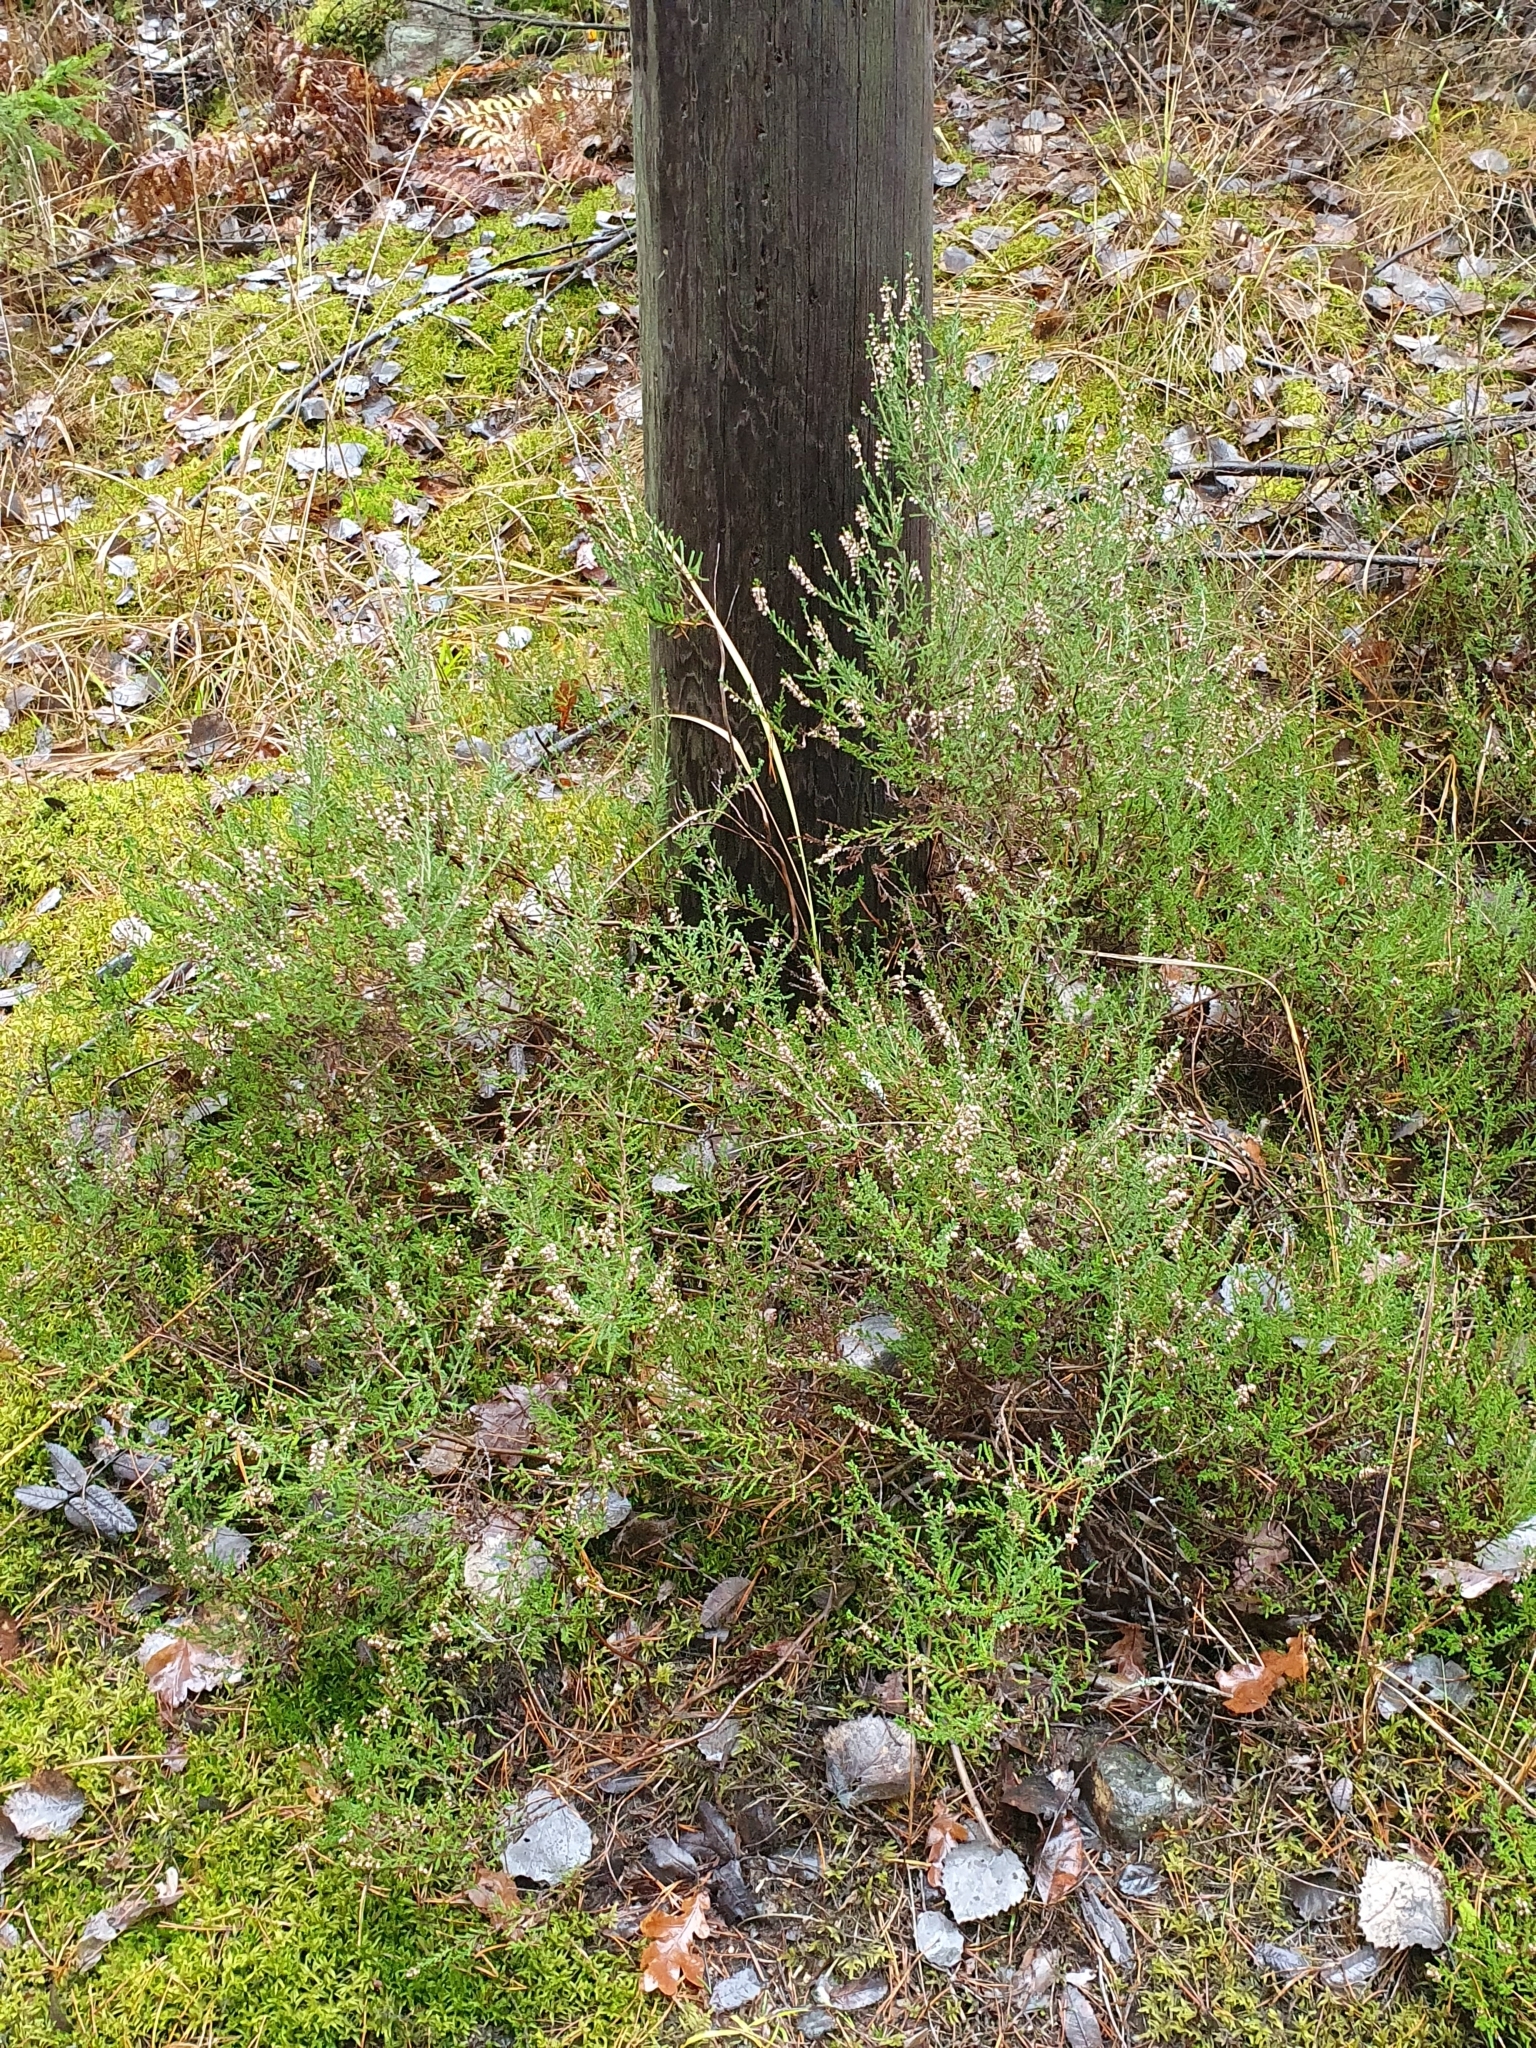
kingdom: Plantae
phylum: Tracheophyta
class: Magnoliopsida
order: Ericales
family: Ericaceae
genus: Calluna
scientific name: Calluna vulgaris
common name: Heather
